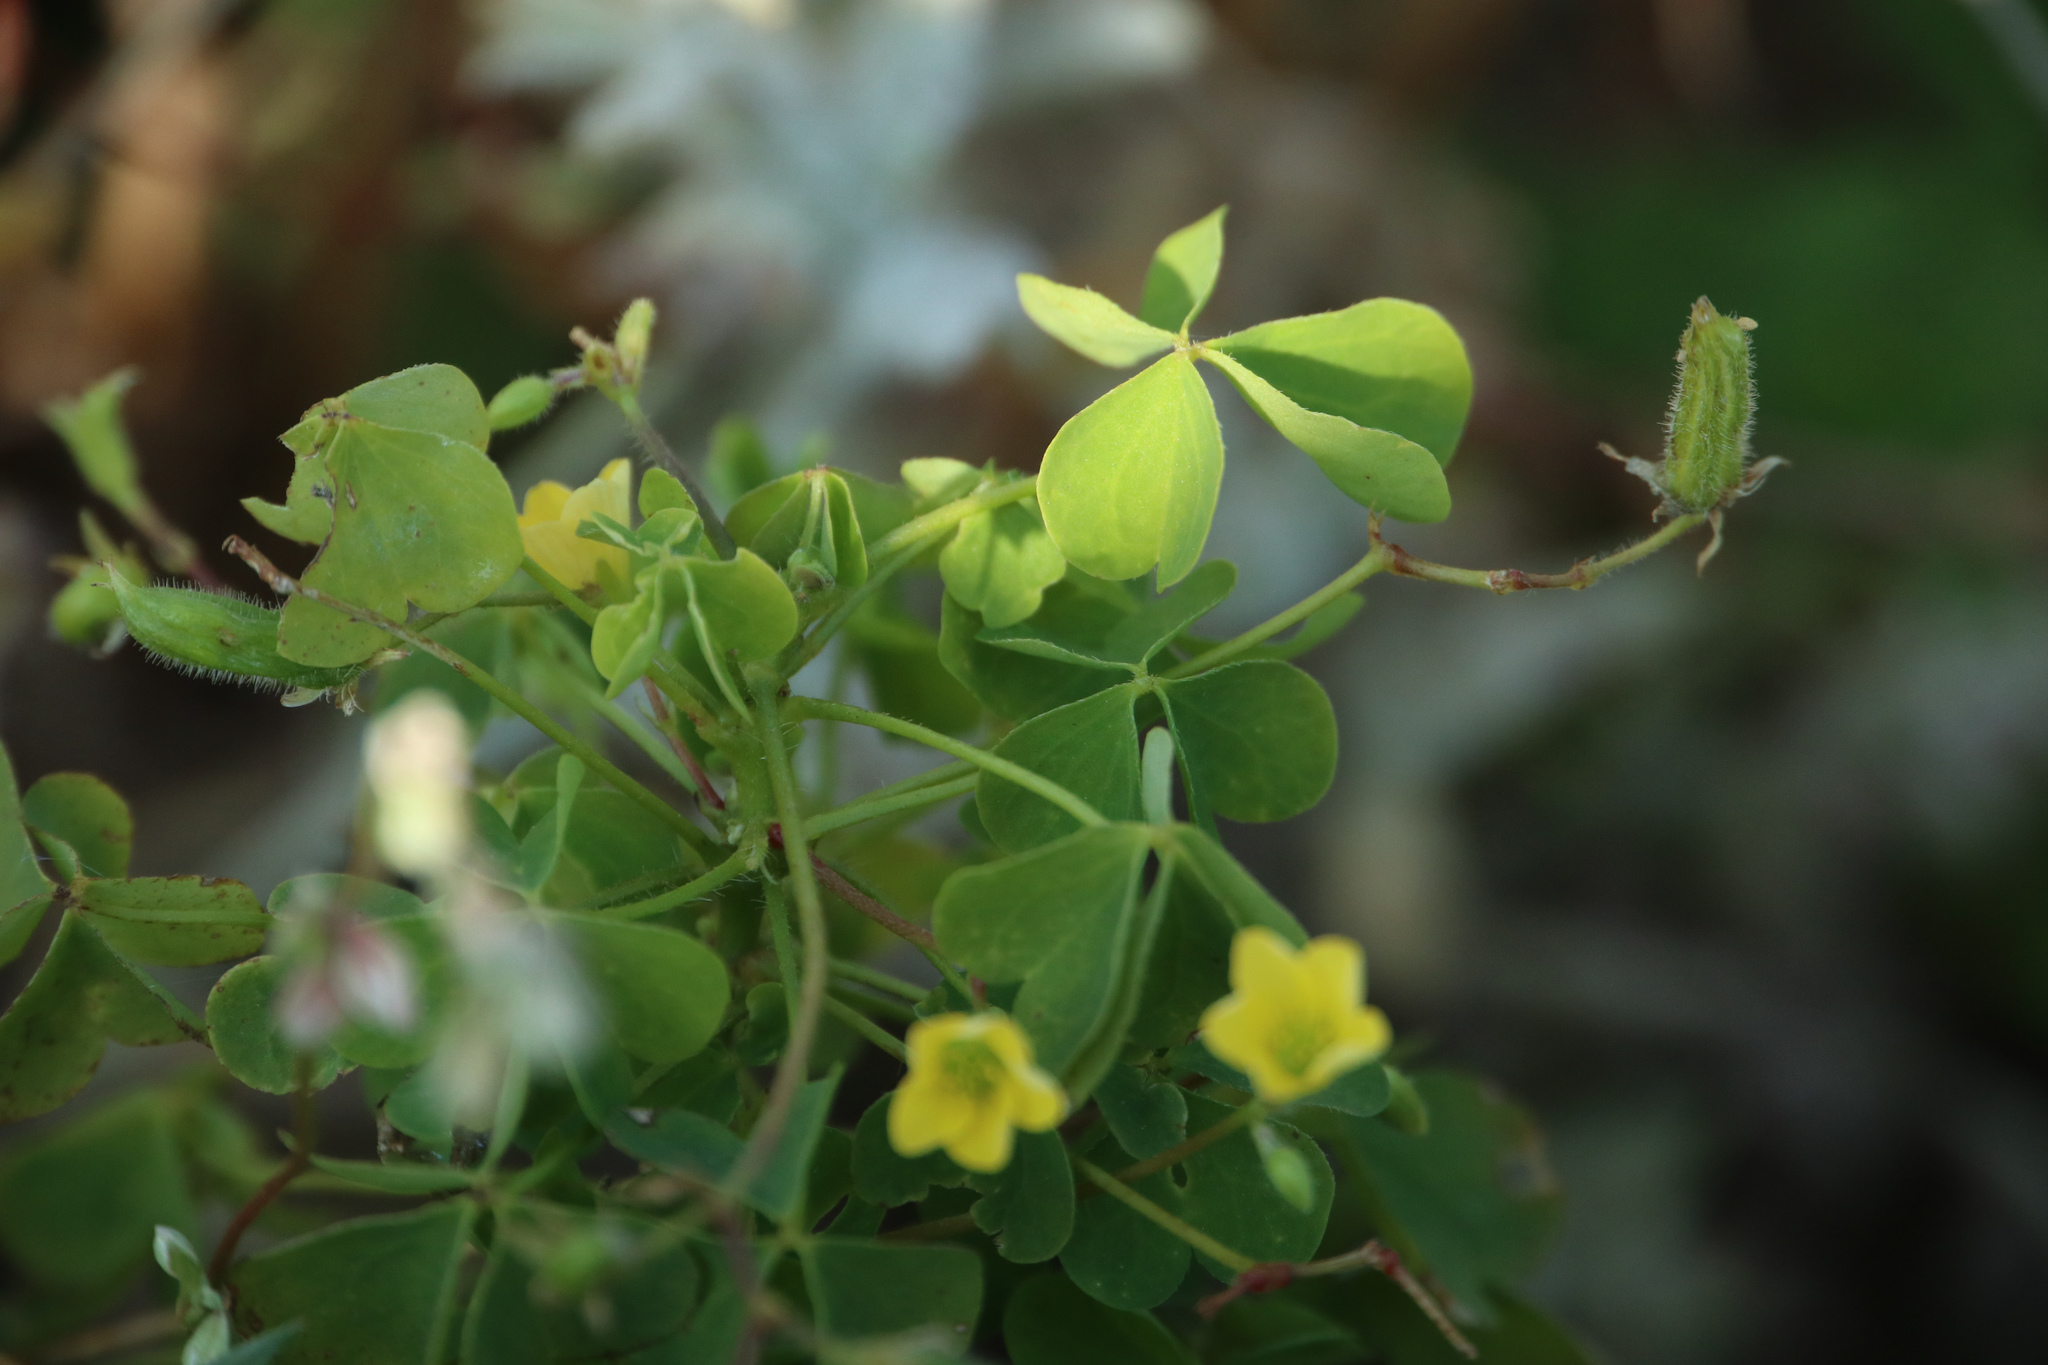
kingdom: Plantae
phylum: Tracheophyta
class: Magnoliopsida
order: Oxalidales
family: Oxalidaceae
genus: Oxalis
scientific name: Oxalis stricta
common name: Upright yellow-sorrel
